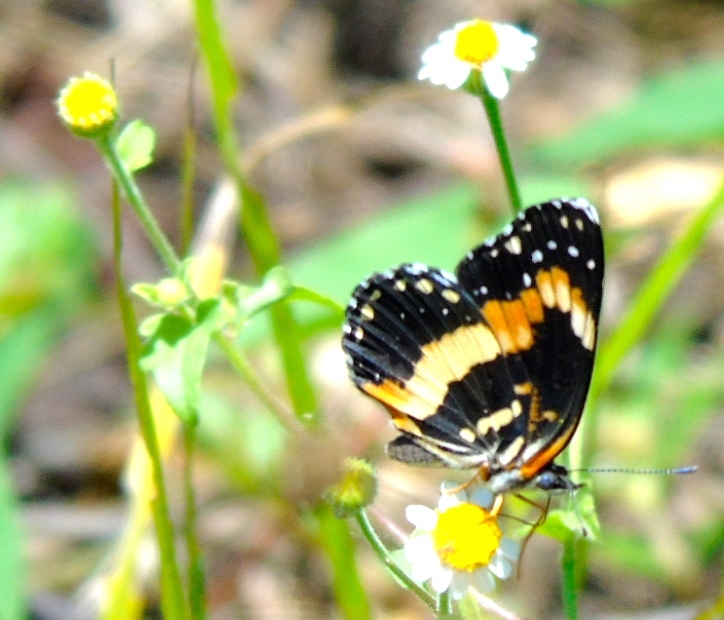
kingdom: Animalia
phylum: Arthropoda
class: Insecta
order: Lepidoptera
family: Nymphalidae
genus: Chlosyne
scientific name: Chlosyne lacinia
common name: Bordered patch
